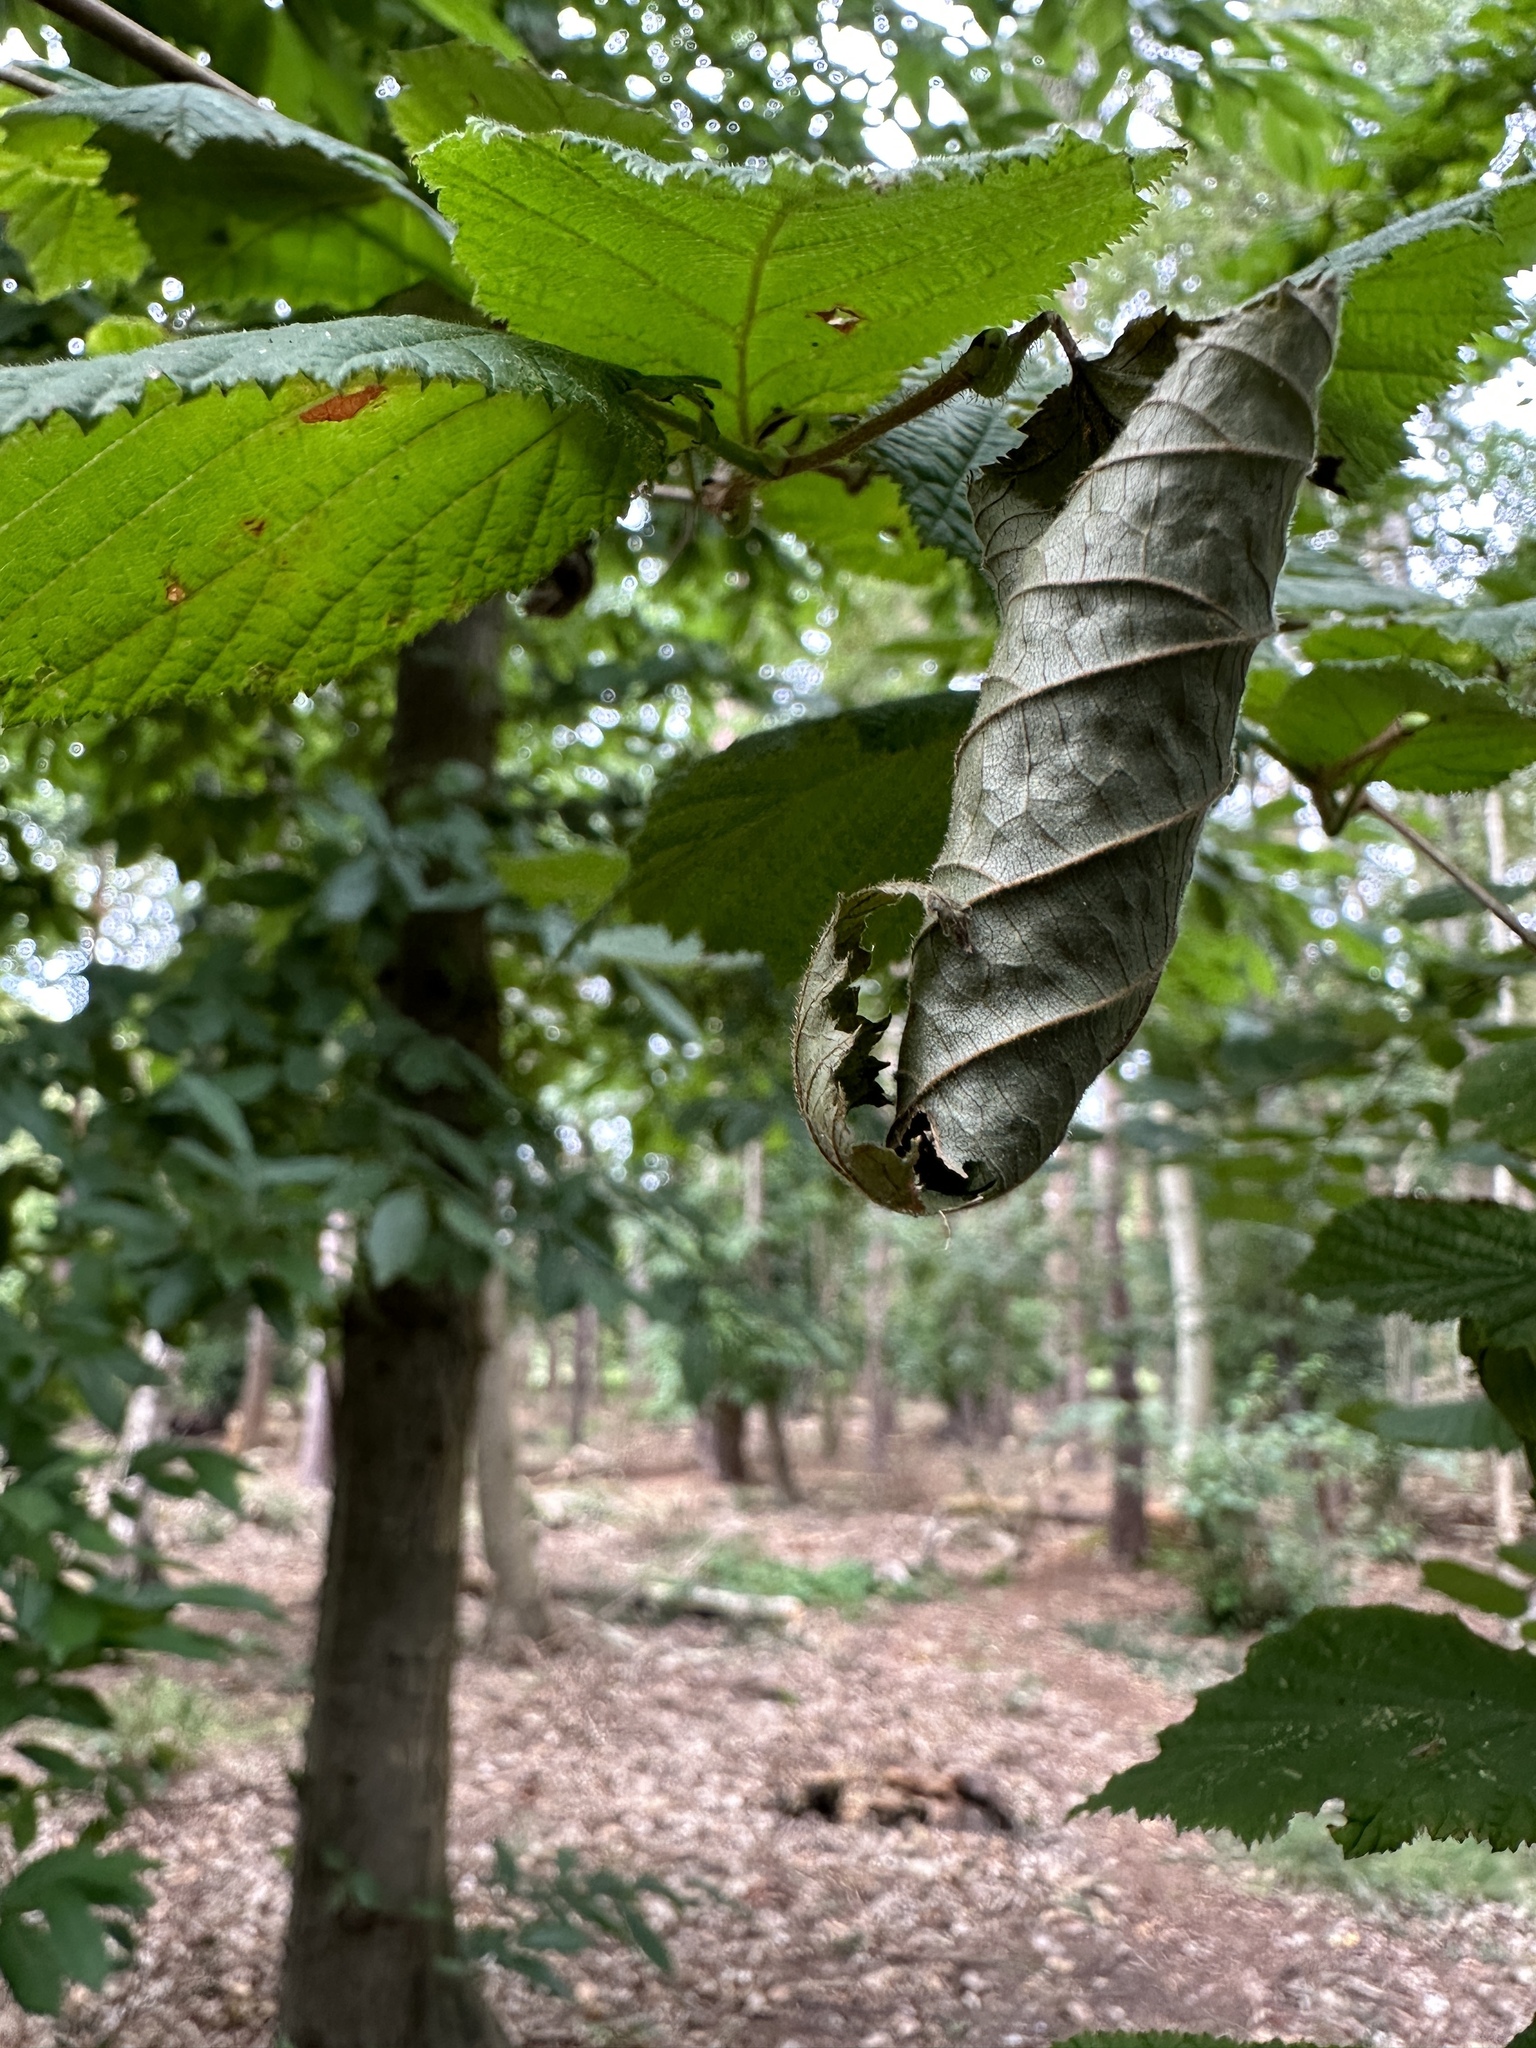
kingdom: Plantae
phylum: Tracheophyta
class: Magnoliopsida
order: Fagales
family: Betulaceae
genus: Corylus
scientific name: Corylus avellana
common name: European hazel
